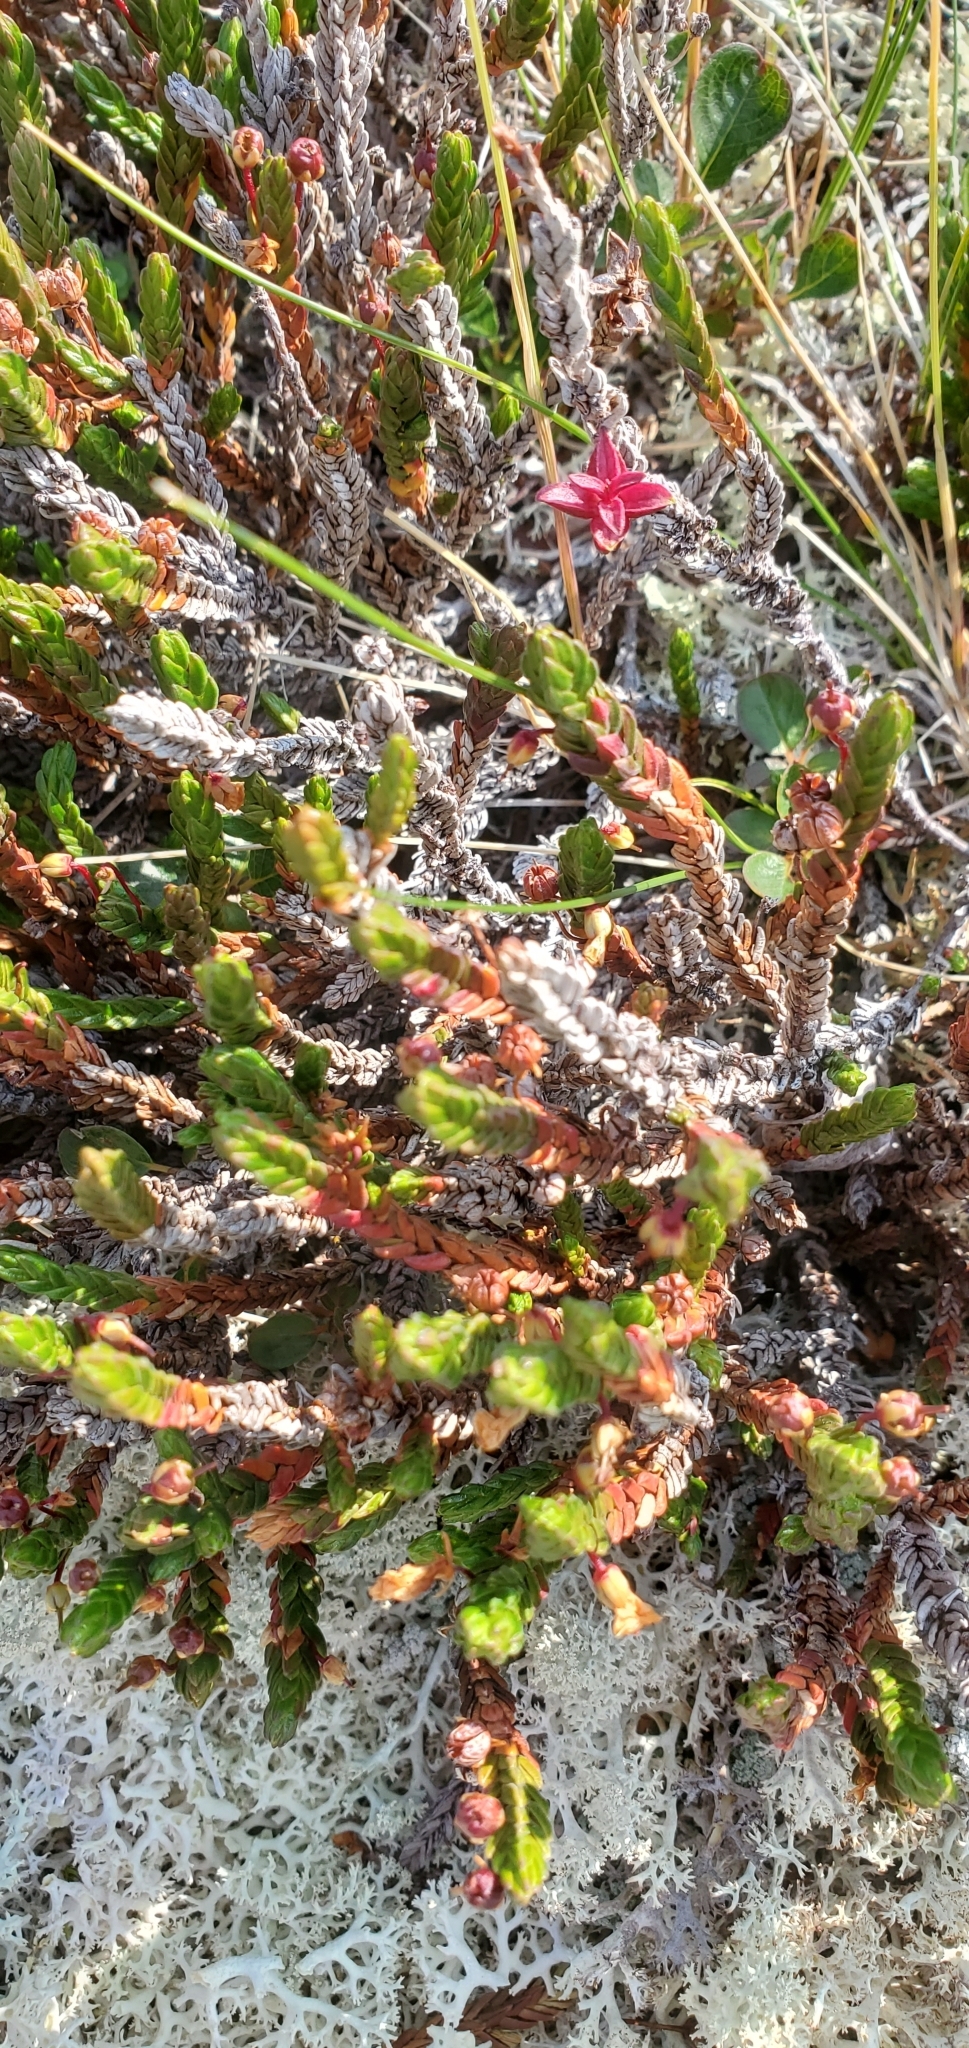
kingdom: Plantae
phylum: Tracheophyta
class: Magnoliopsida
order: Ericales
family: Ericaceae
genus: Cassiope
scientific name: Cassiope tetragona
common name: Arctic bell heather
